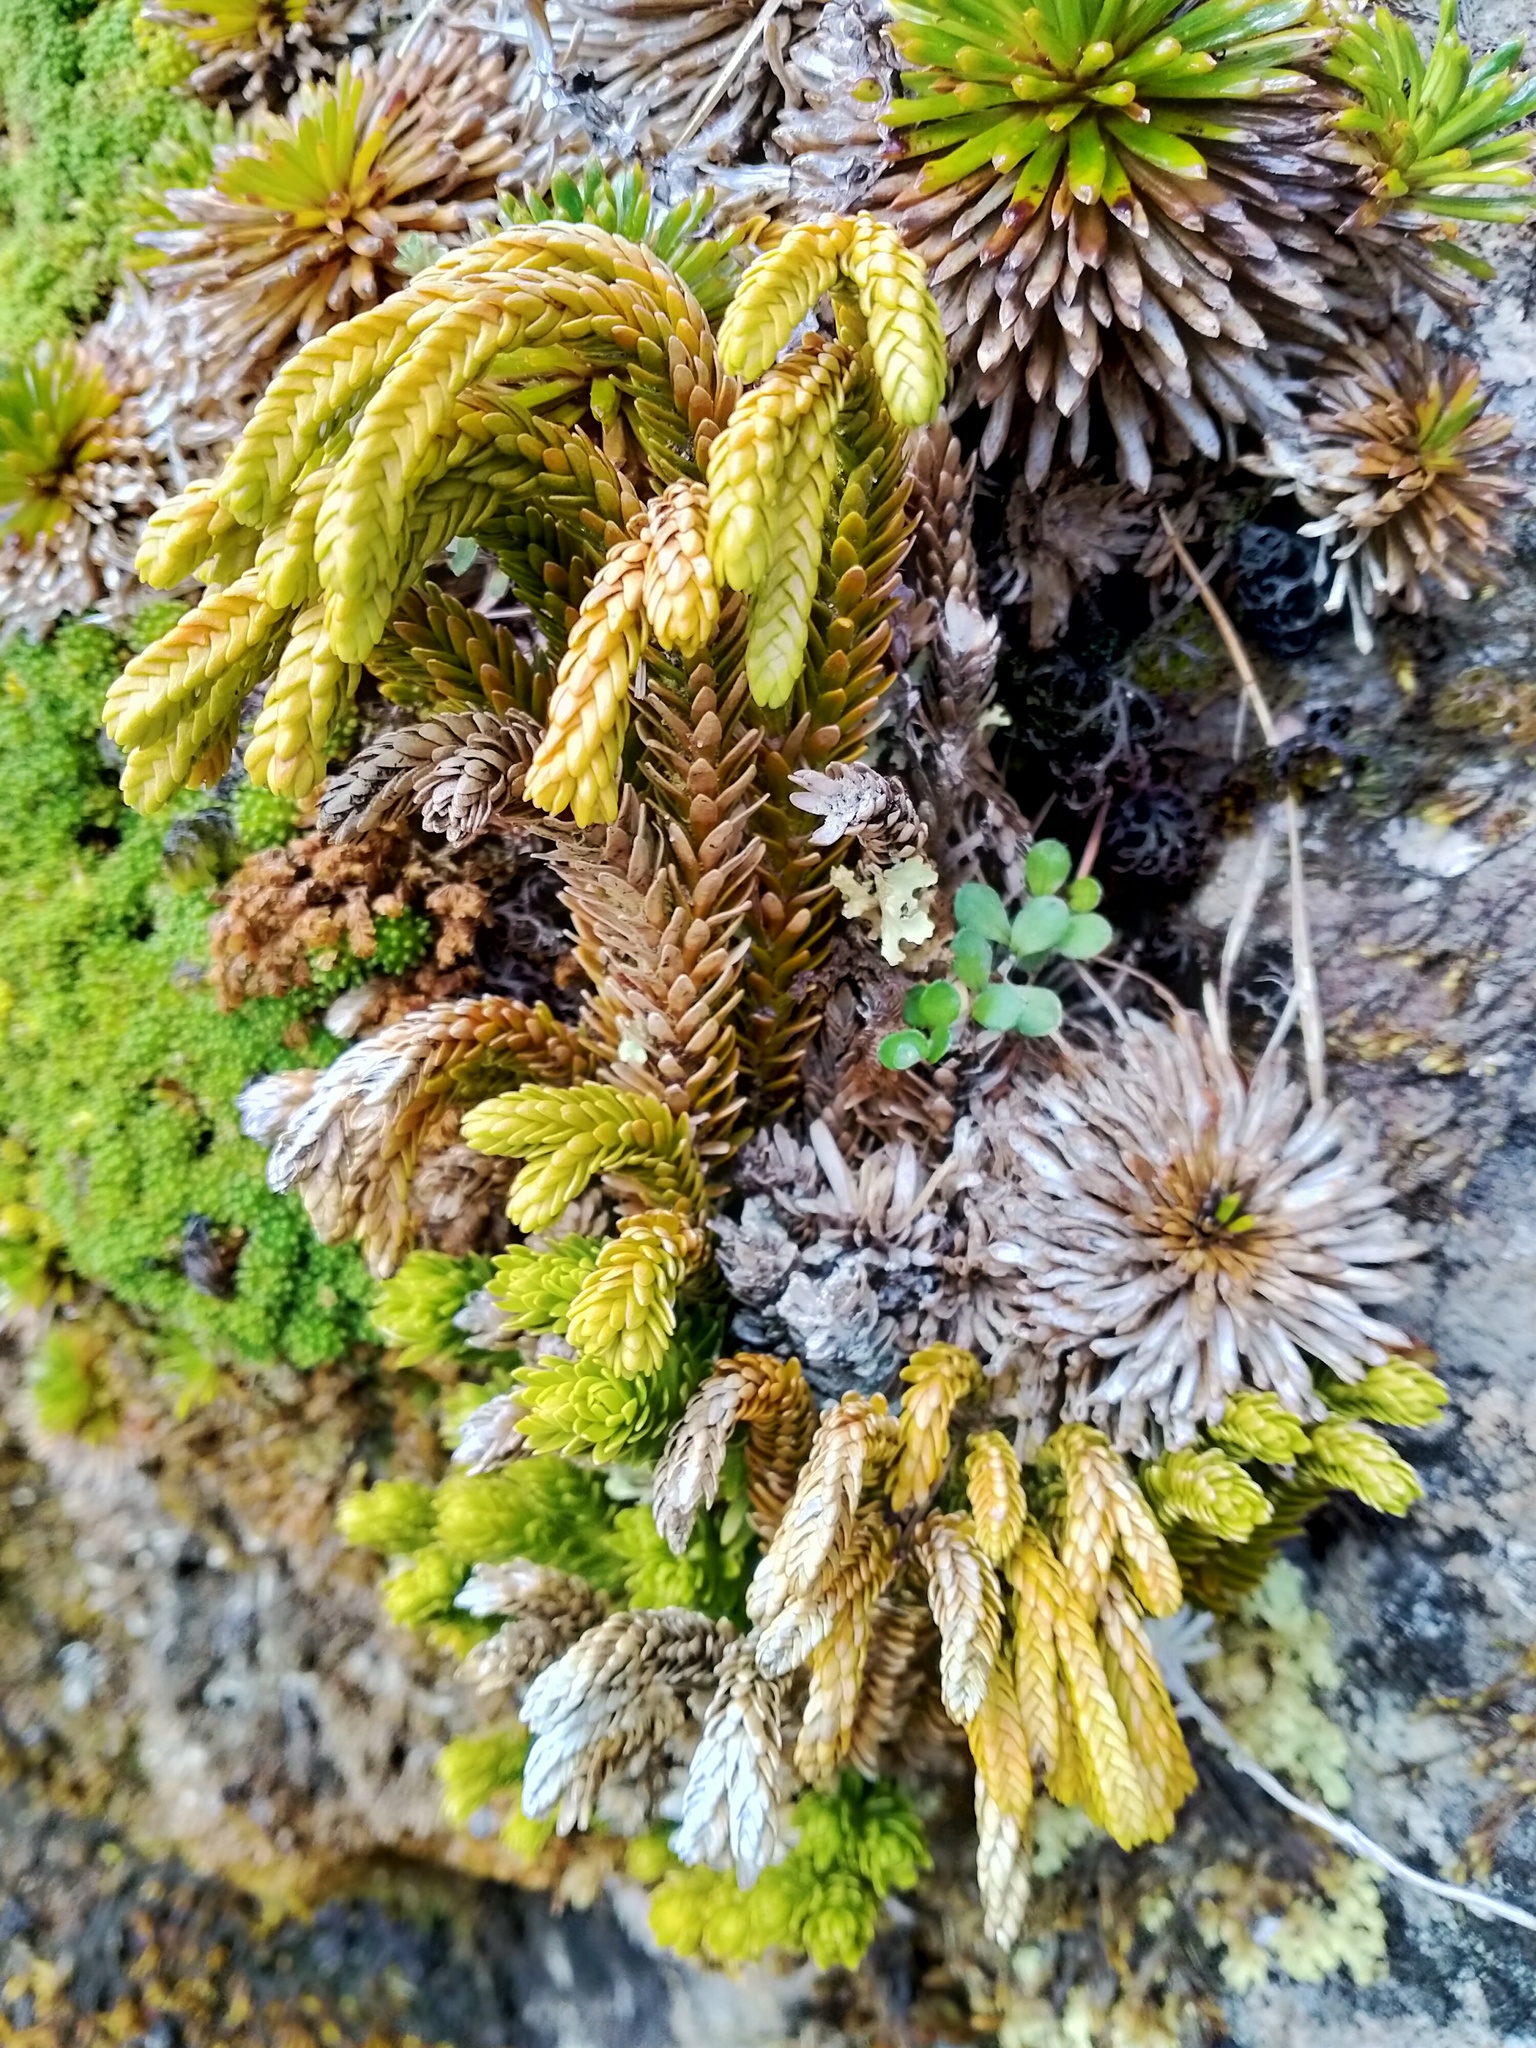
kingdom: Plantae
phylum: Tracheophyta
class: Lycopodiopsida
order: Lycopodiales
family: Lycopodiaceae
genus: Phlegmariurus
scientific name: Phlegmariurus varius
